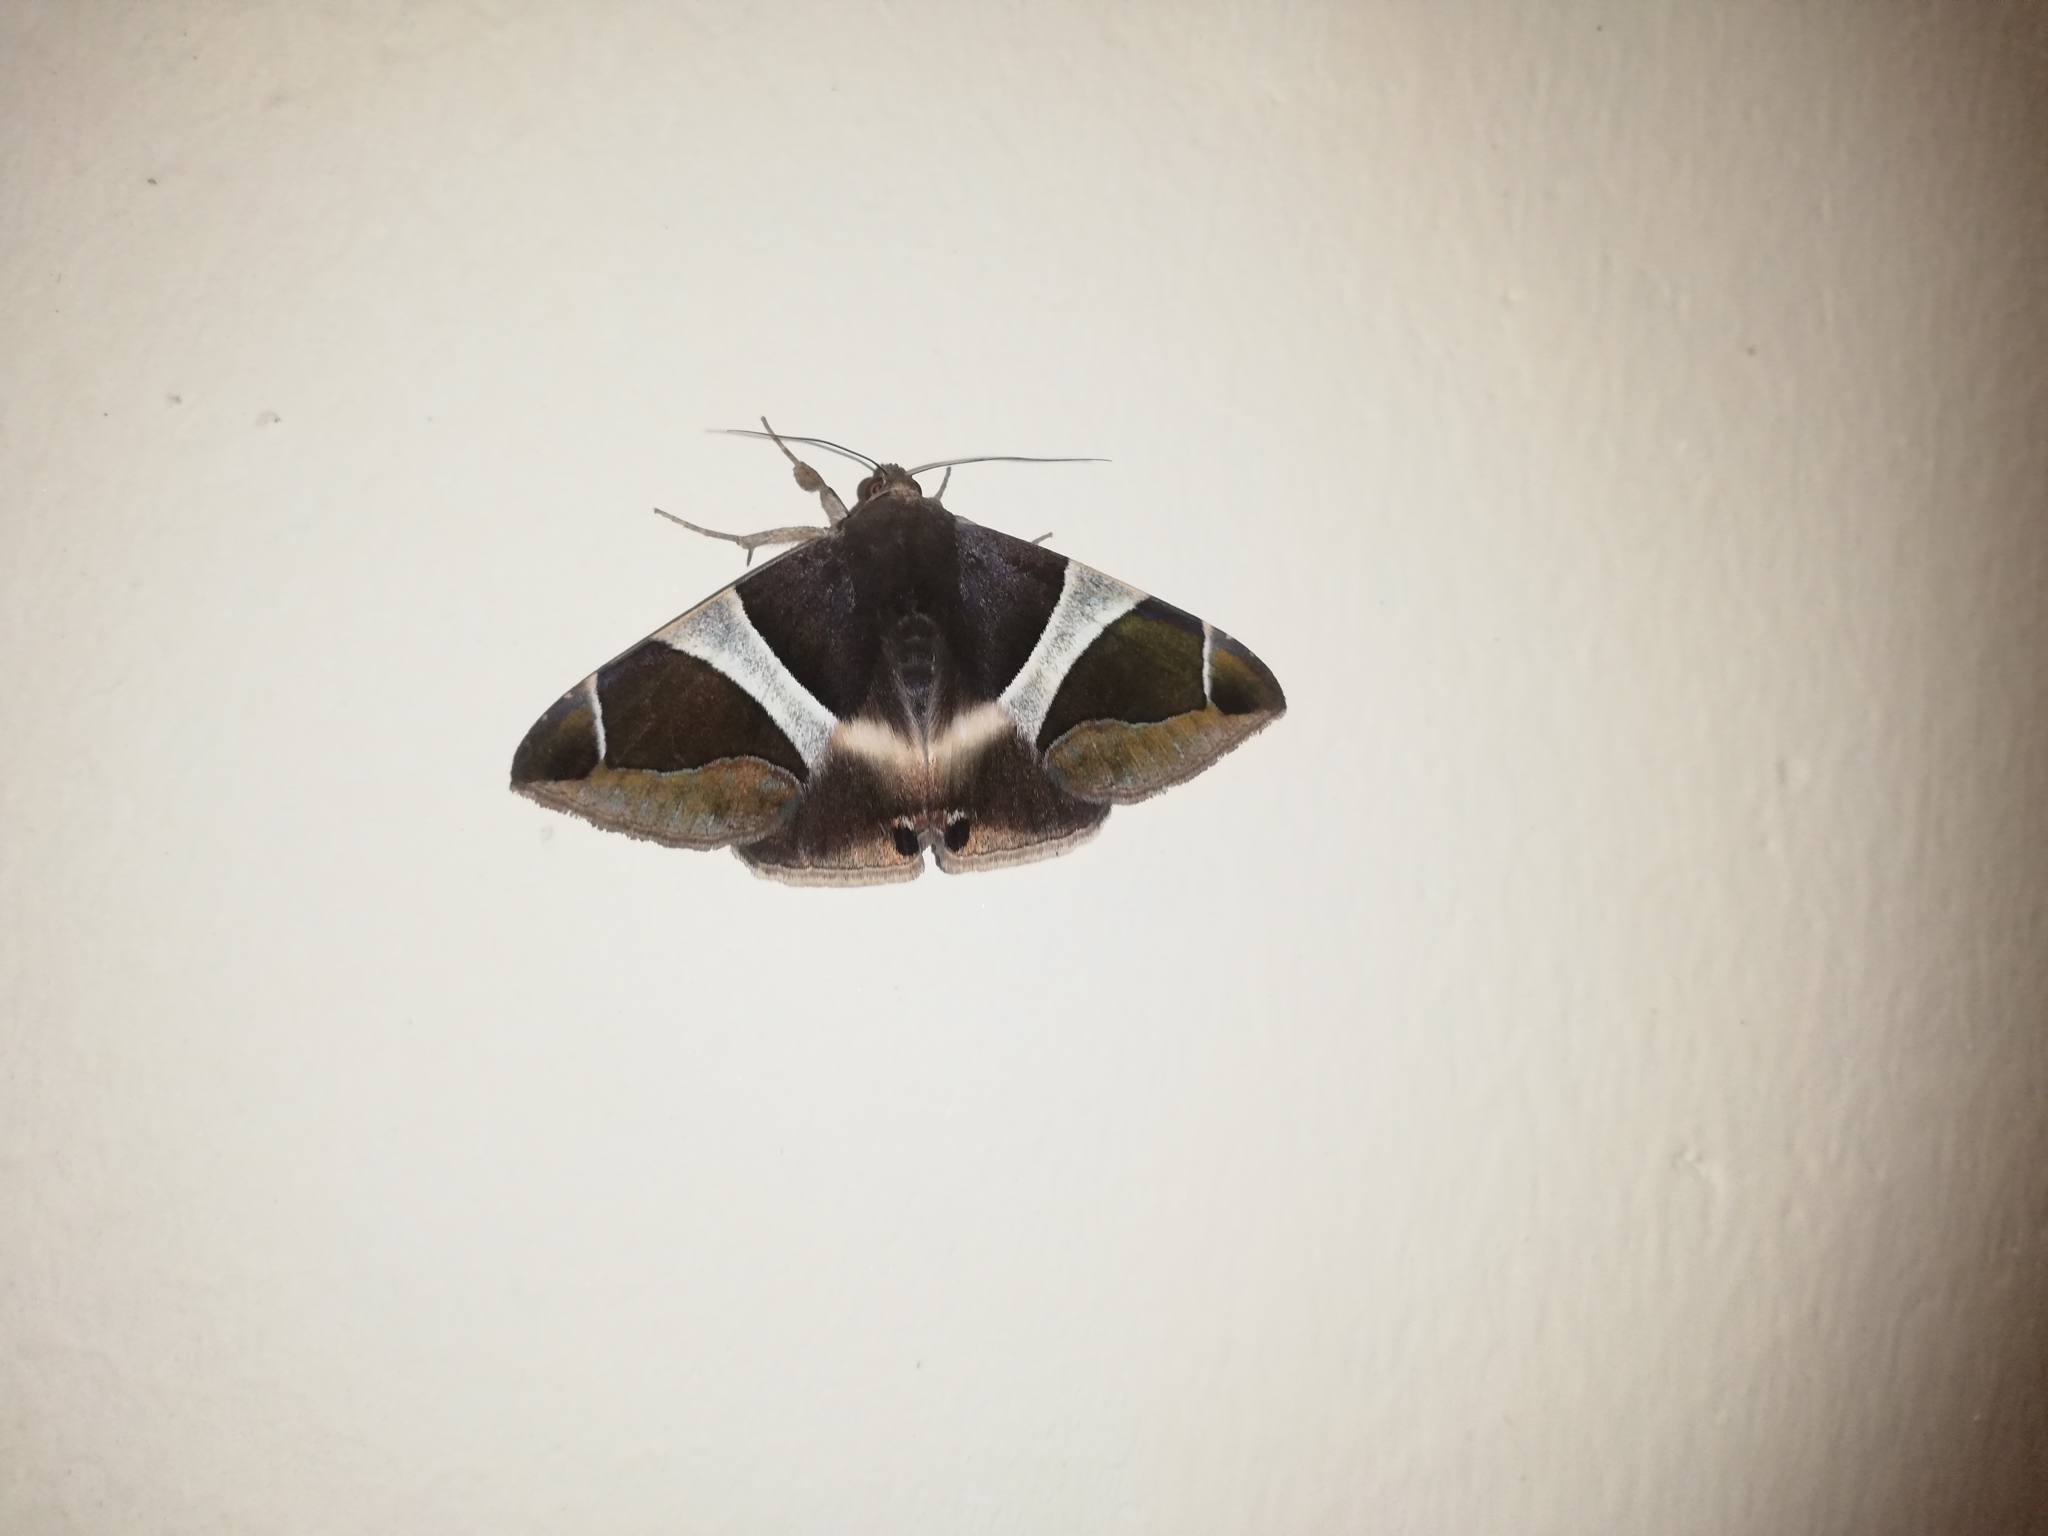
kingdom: Animalia
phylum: Arthropoda
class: Insecta
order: Lepidoptera
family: Erebidae
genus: Bastilla
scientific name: Bastilla crameri
